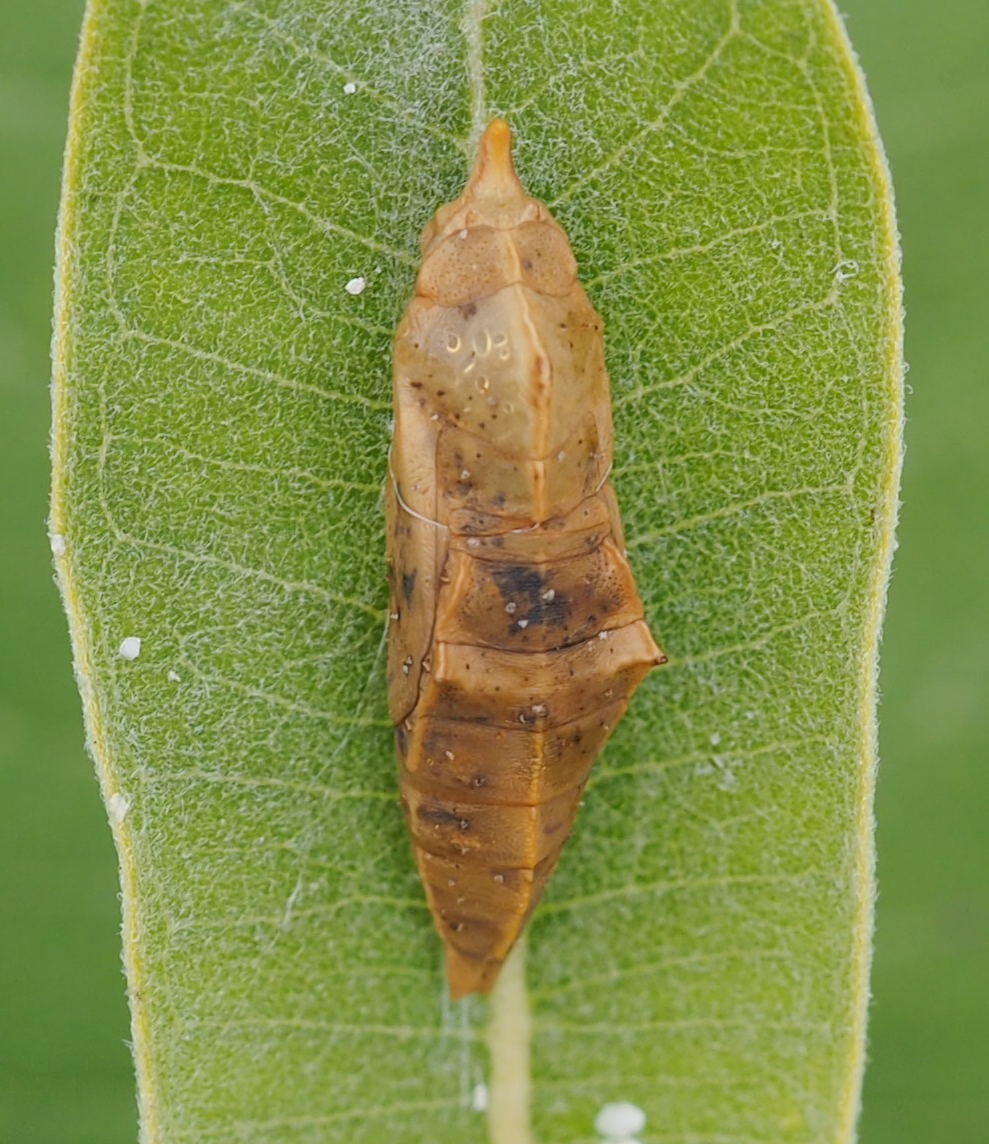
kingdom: Animalia
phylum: Arthropoda
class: Insecta
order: Lepidoptera
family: Pieridae
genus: Pieris
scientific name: Pieris rapae
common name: Small white
